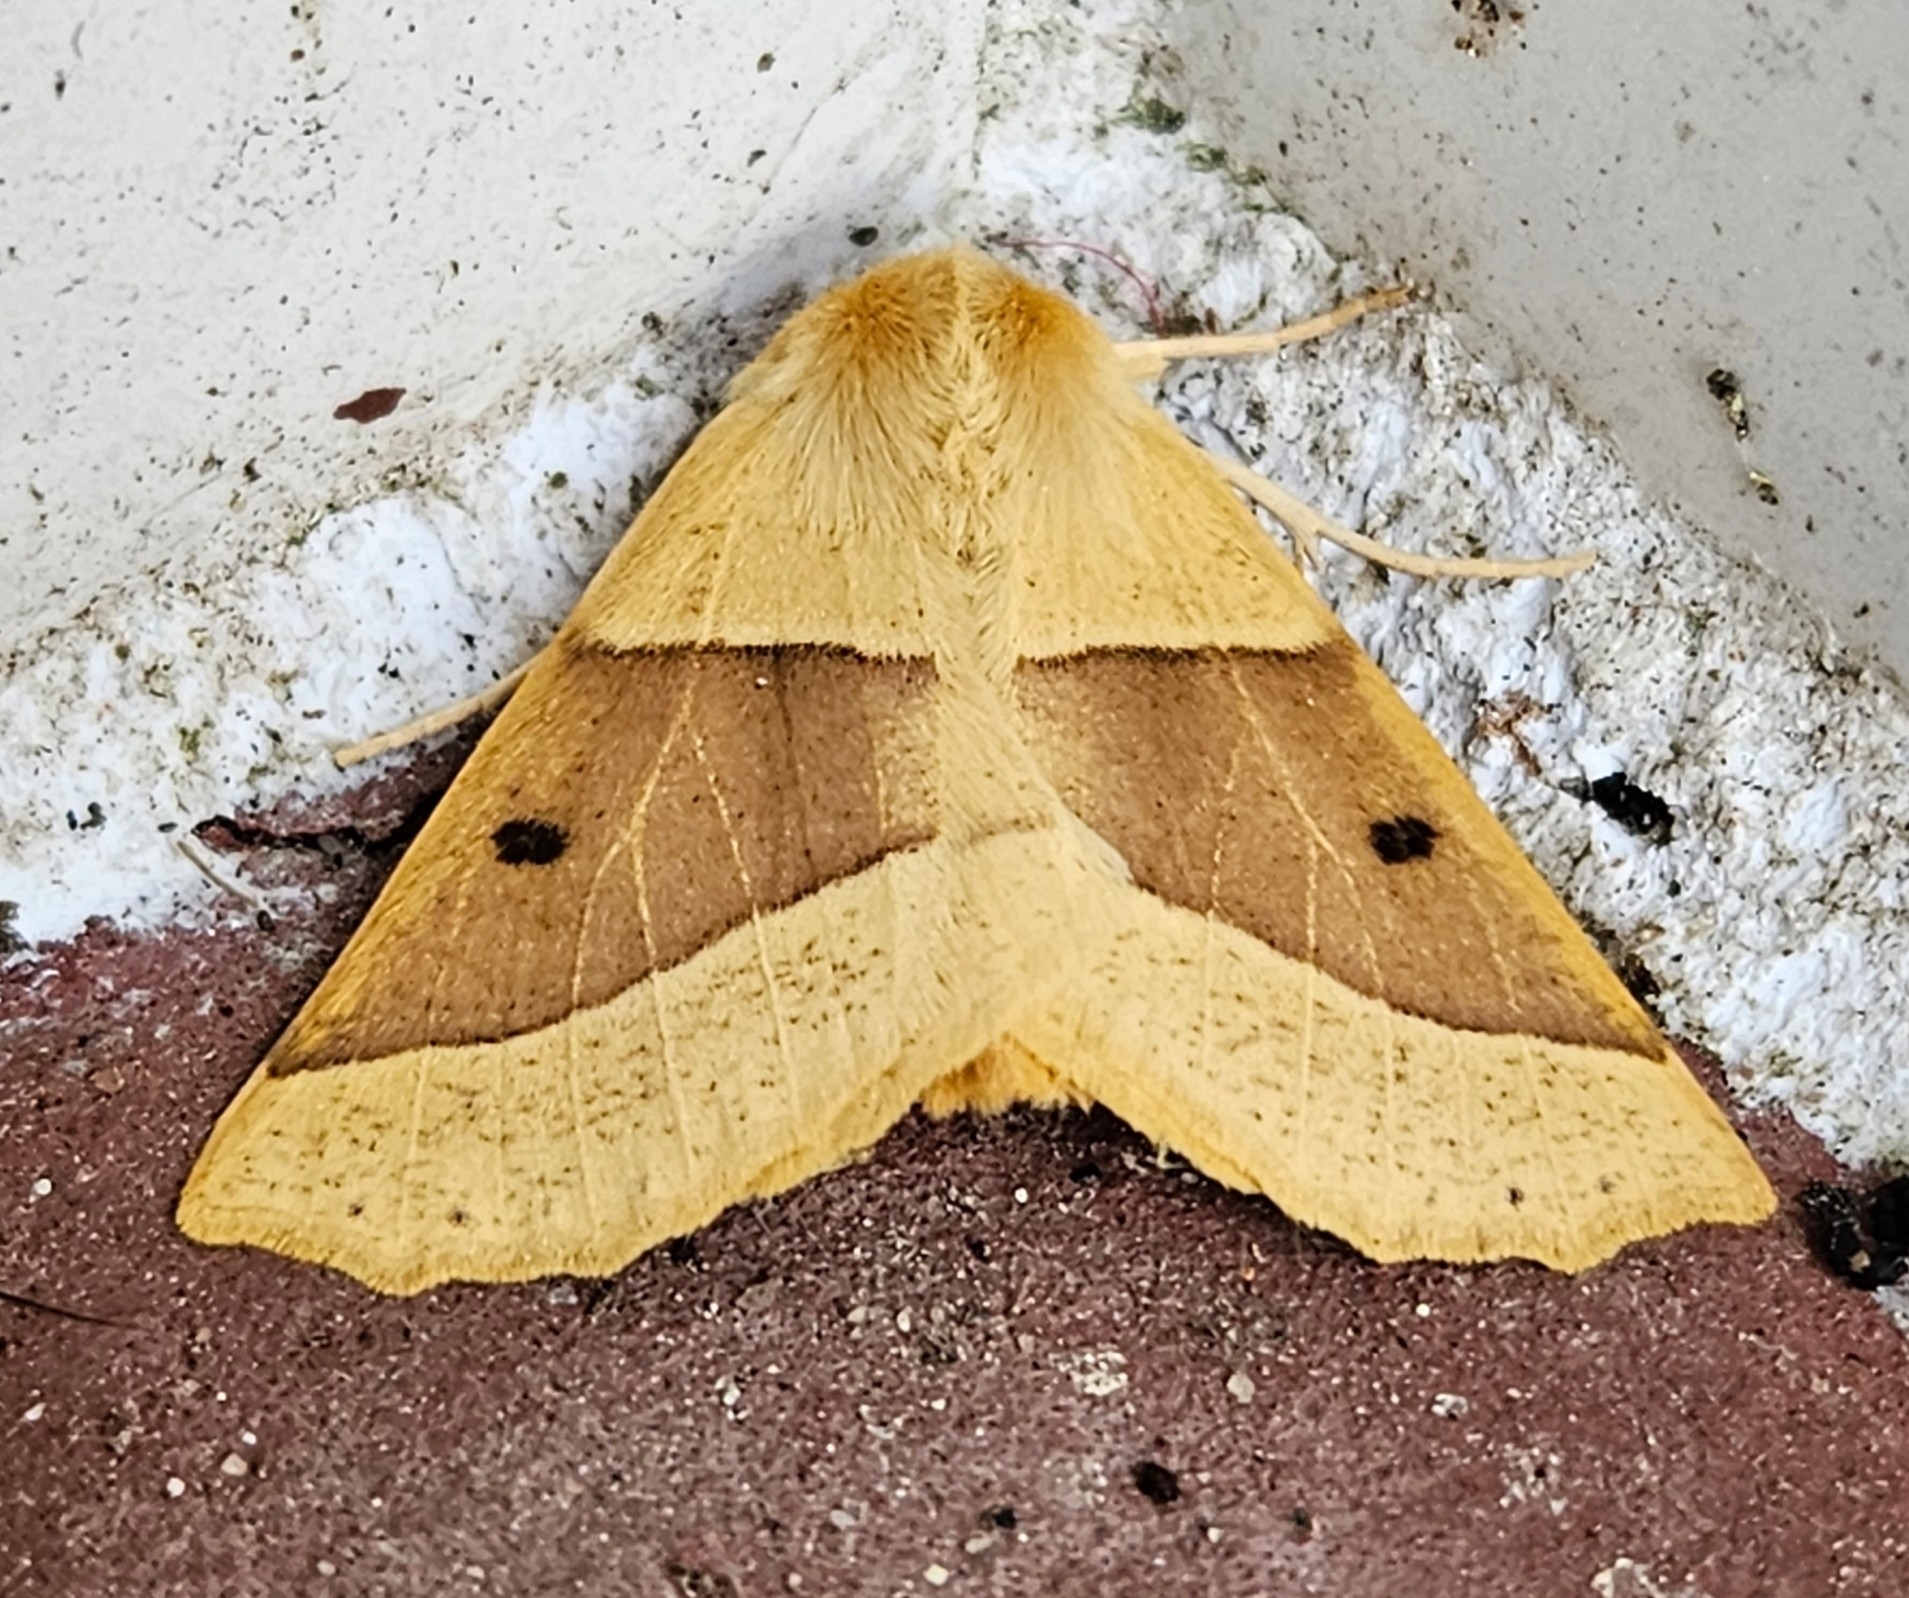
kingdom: Animalia
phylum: Arthropoda
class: Insecta
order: Lepidoptera
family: Geometridae
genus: Crocallis
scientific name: Crocallis elinguaria
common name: Scalloped oak
